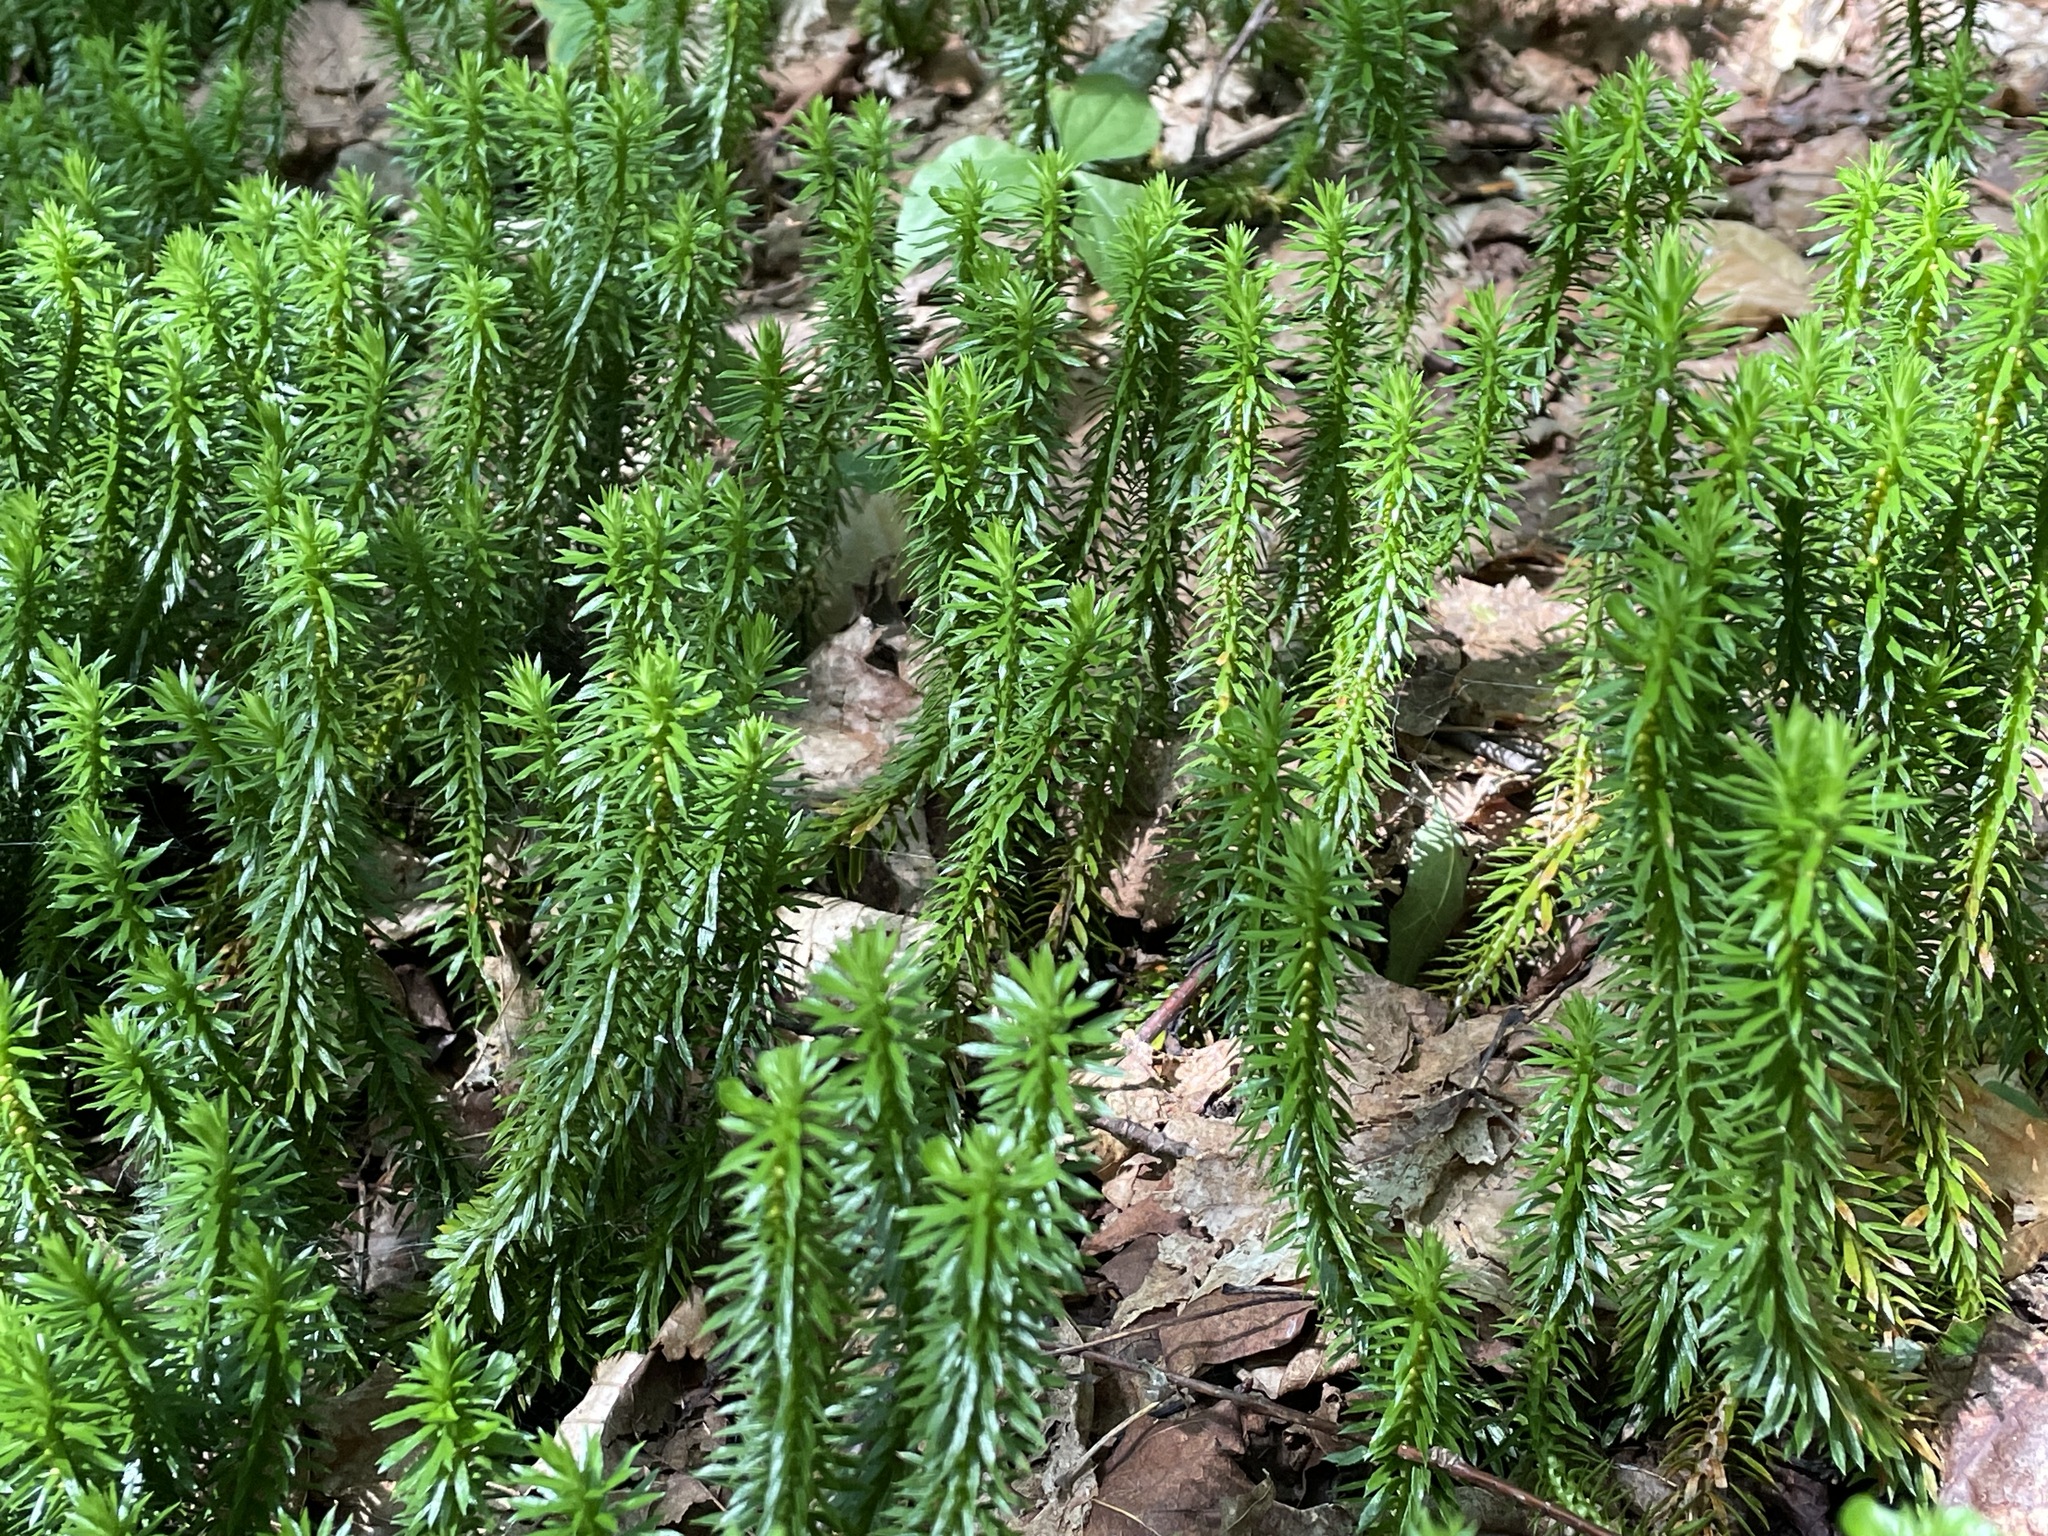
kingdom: Plantae
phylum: Tracheophyta
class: Lycopodiopsida
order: Lycopodiales
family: Lycopodiaceae
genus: Huperzia
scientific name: Huperzia lucidula
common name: Shining clubmoss
